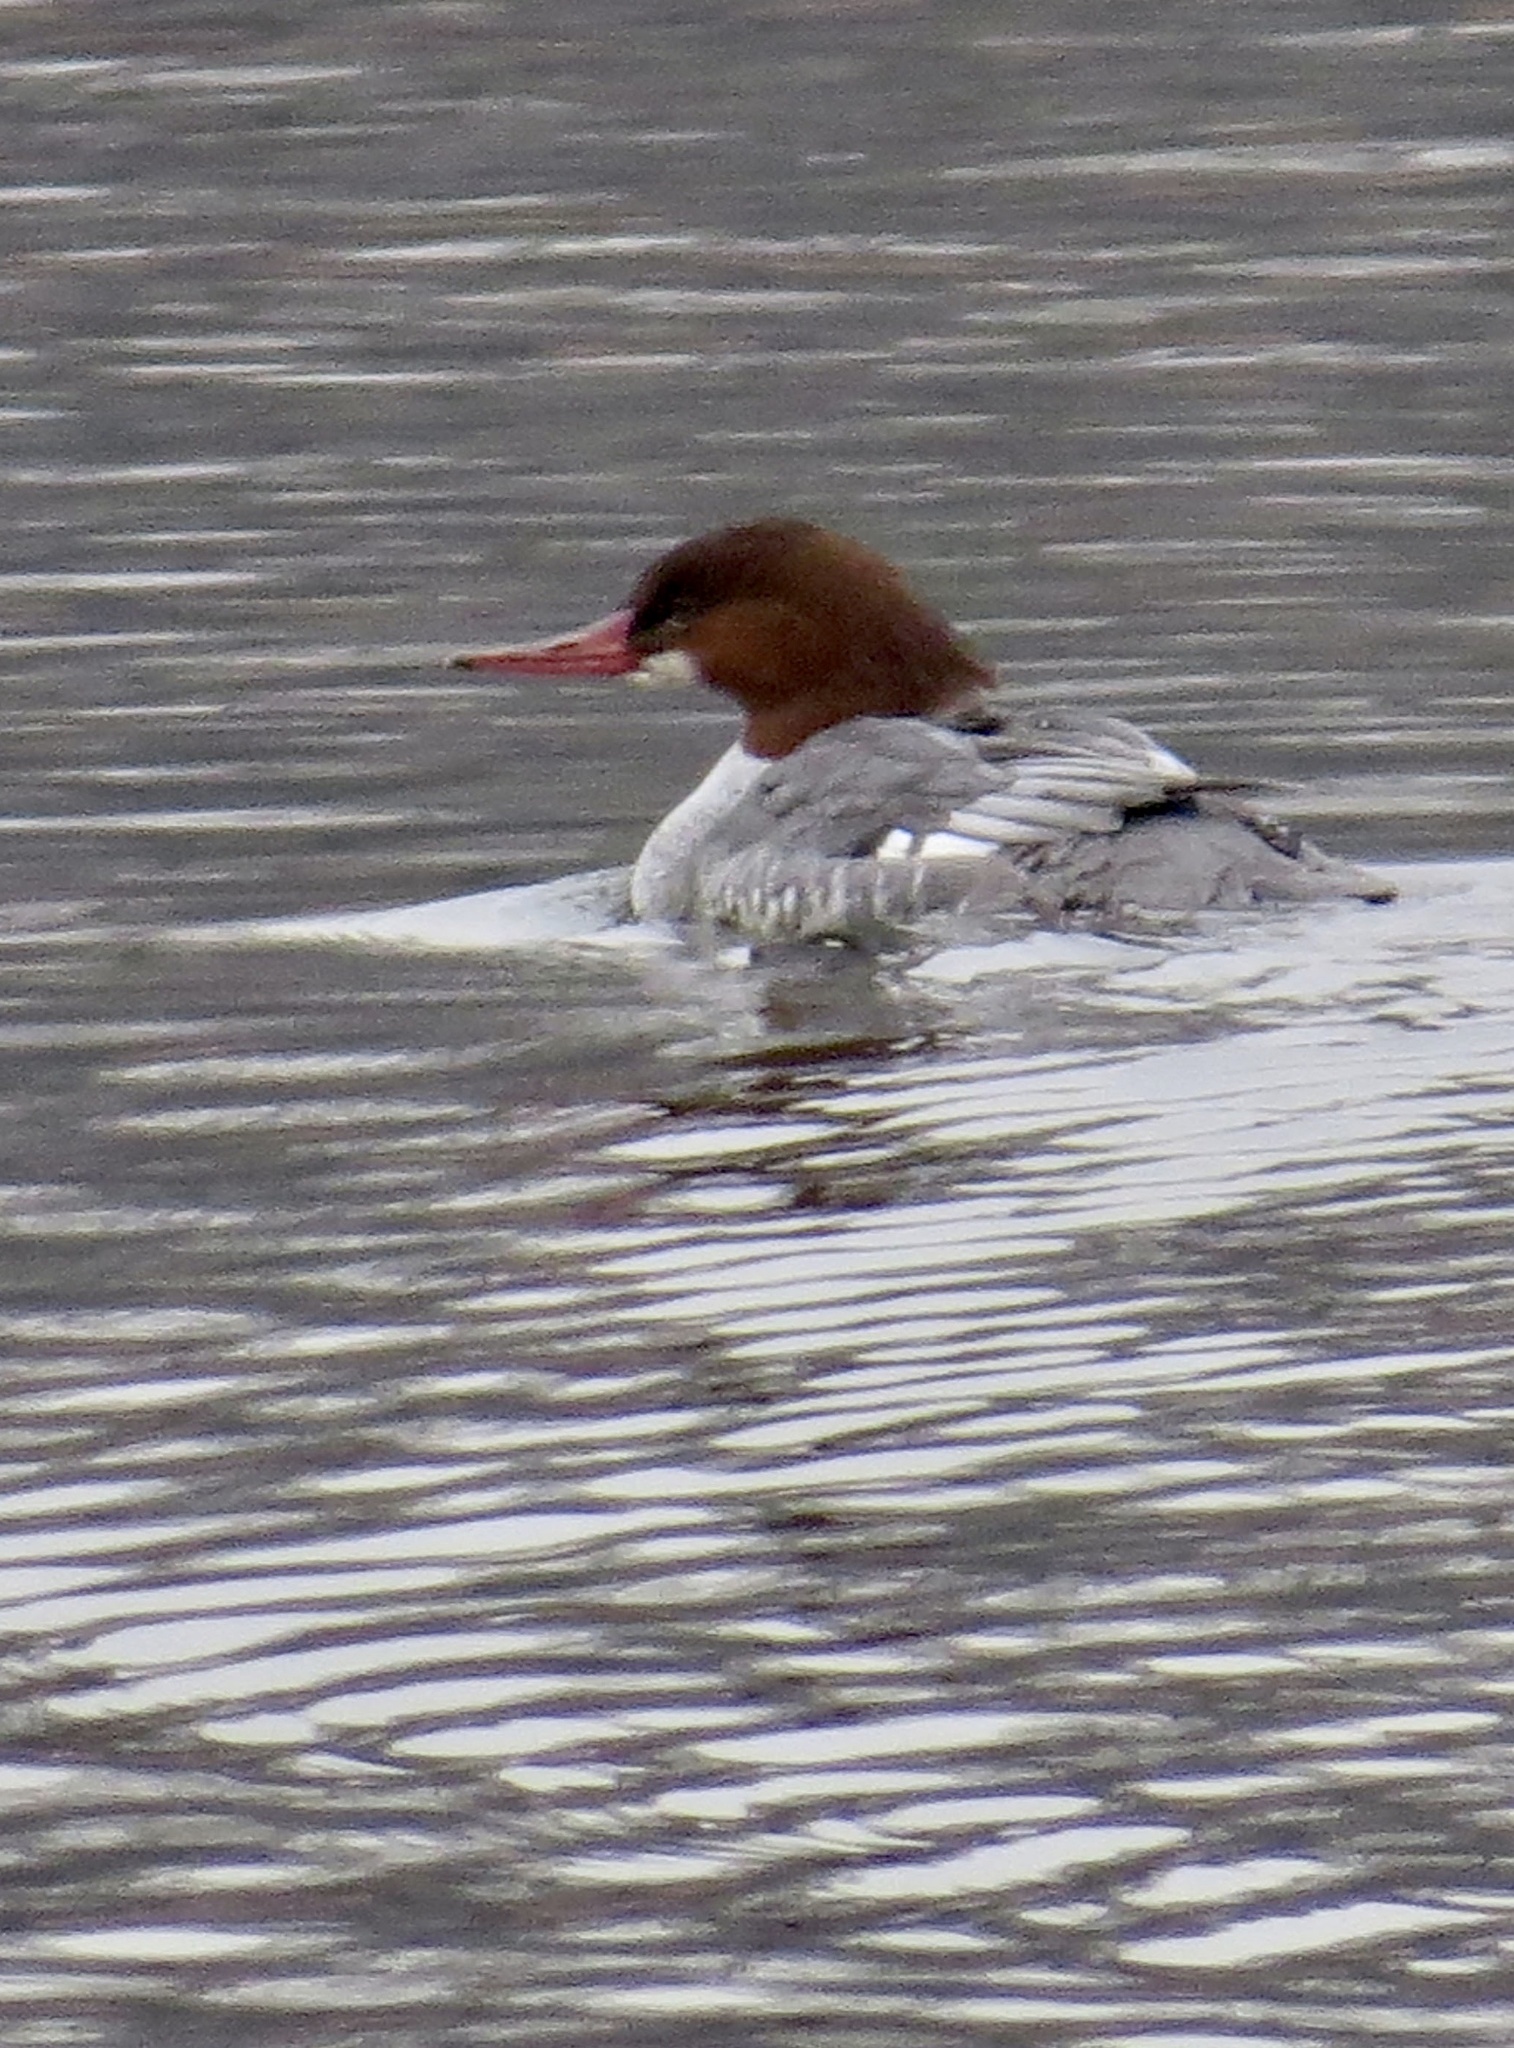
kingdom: Animalia
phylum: Chordata
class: Aves
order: Anseriformes
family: Anatidae
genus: Mergus
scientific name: Mergus merganser
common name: Common merganser
